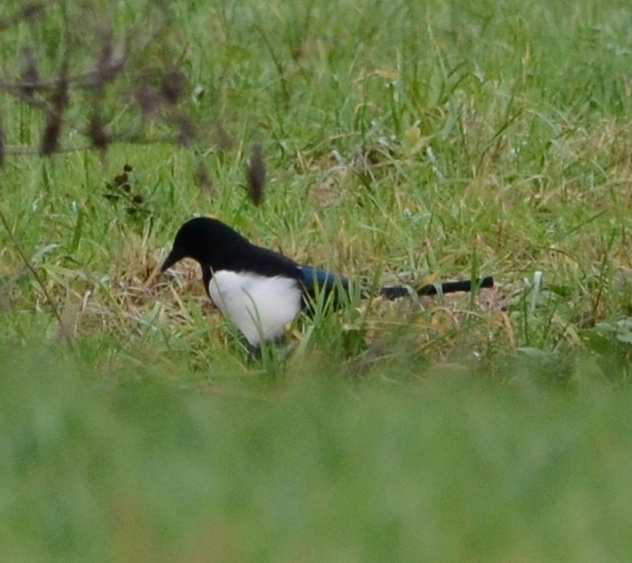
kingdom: Animalia
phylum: Chordata
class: Aves
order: Passeriformes
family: Corvidae
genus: Pica
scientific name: Pica pica
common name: Eurasian magpie
